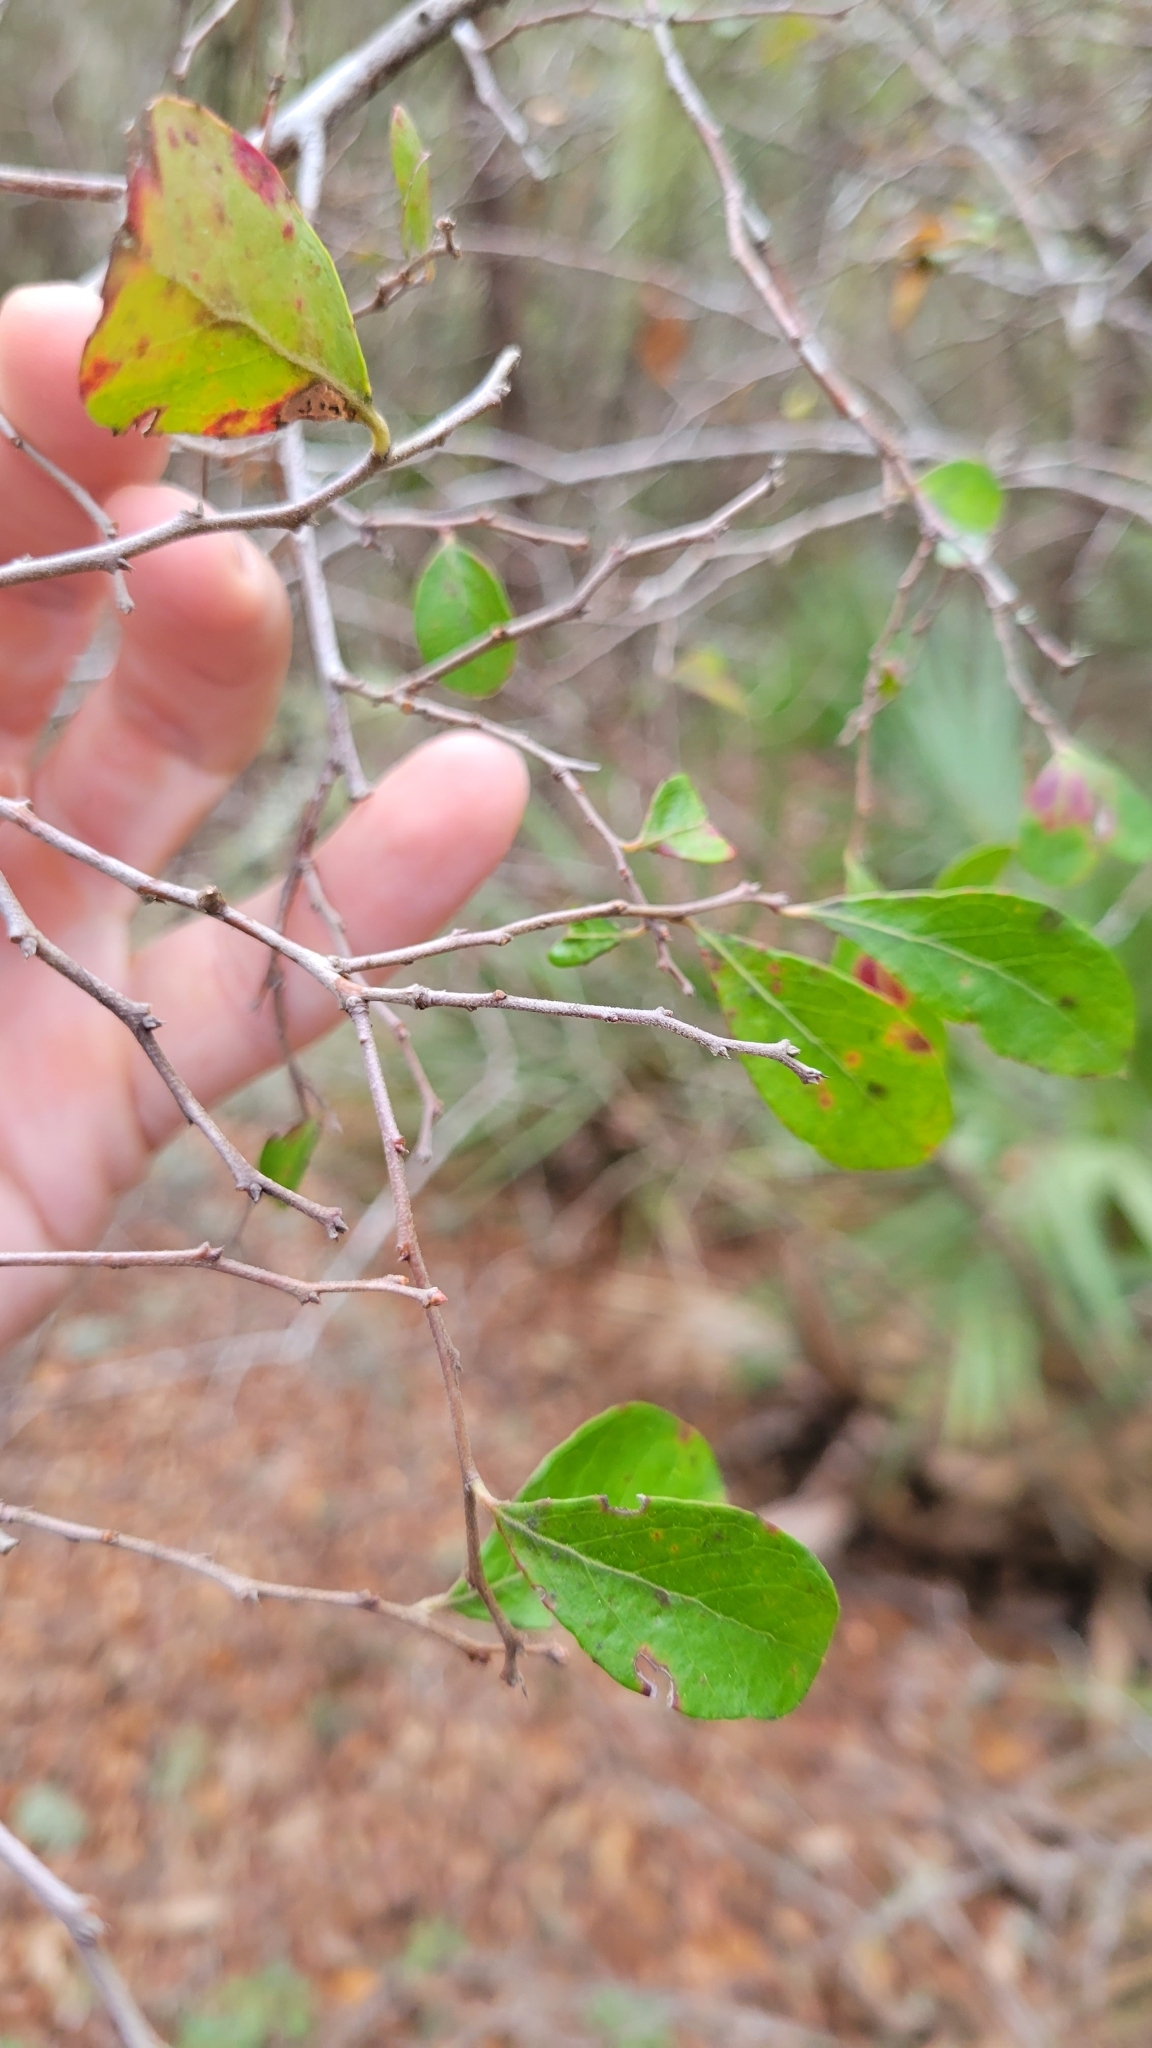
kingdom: Plantae
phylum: Tracheophyta
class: Magnoliopsida
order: Ericales
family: Ericaceae
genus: Vaccinium
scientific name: Vaccinium arboreum
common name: Farkleberry
